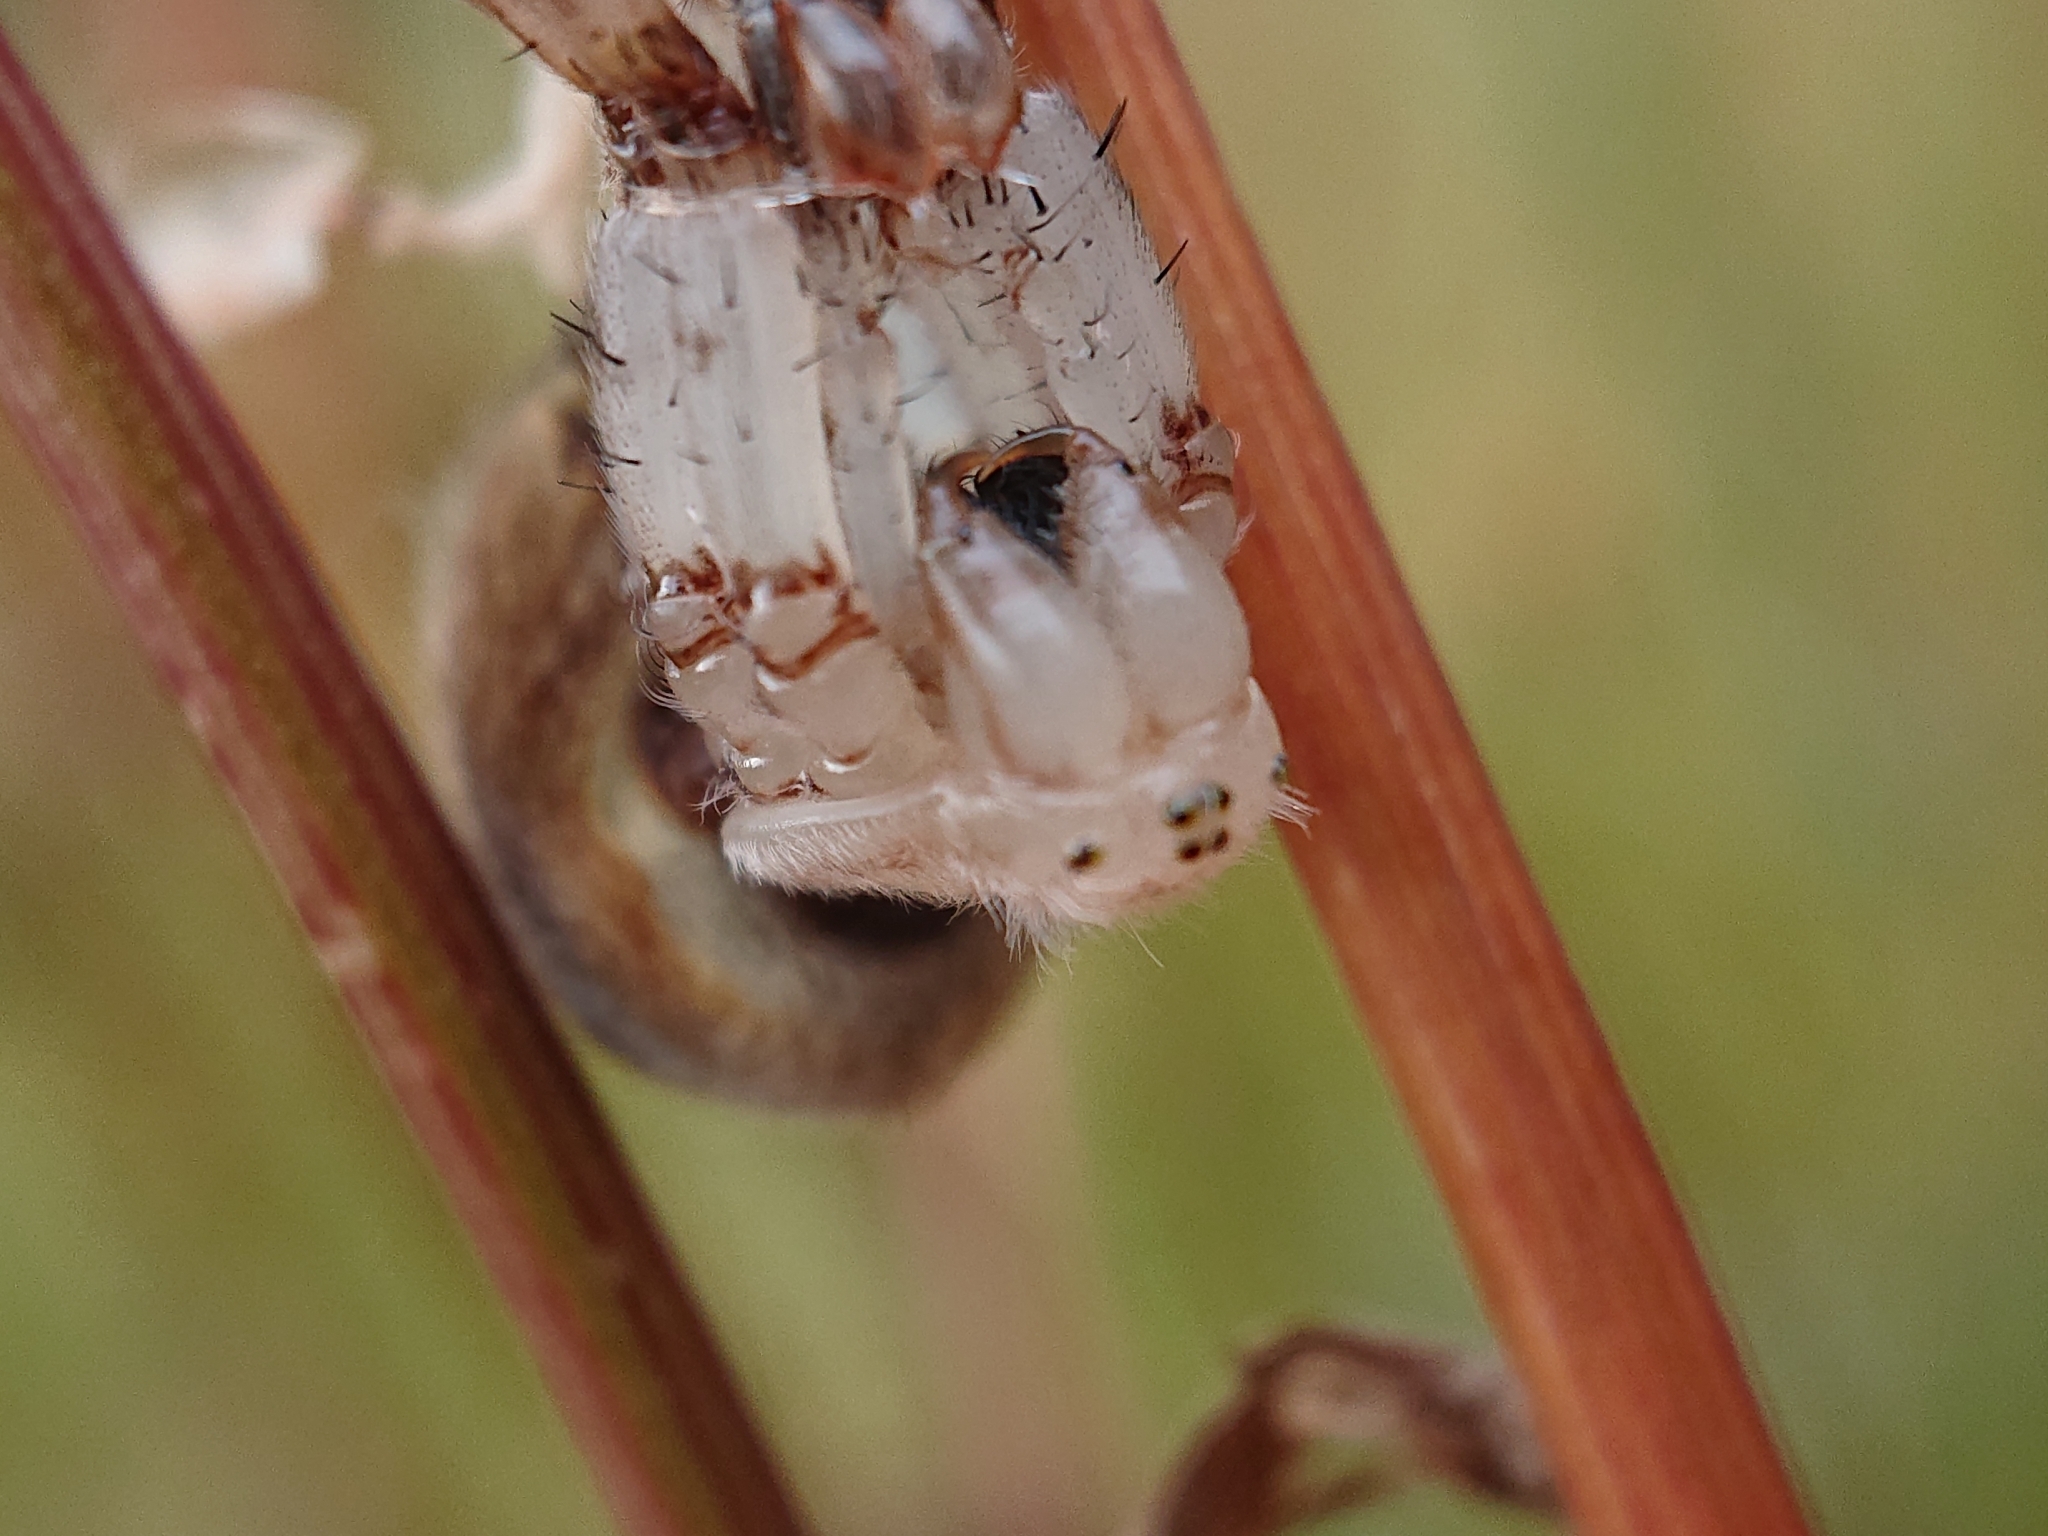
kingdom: Animalia
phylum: Arthropoda
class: Arachnida
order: Araneae
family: Araneidae
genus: Araneus
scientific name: Araneus quadratus
